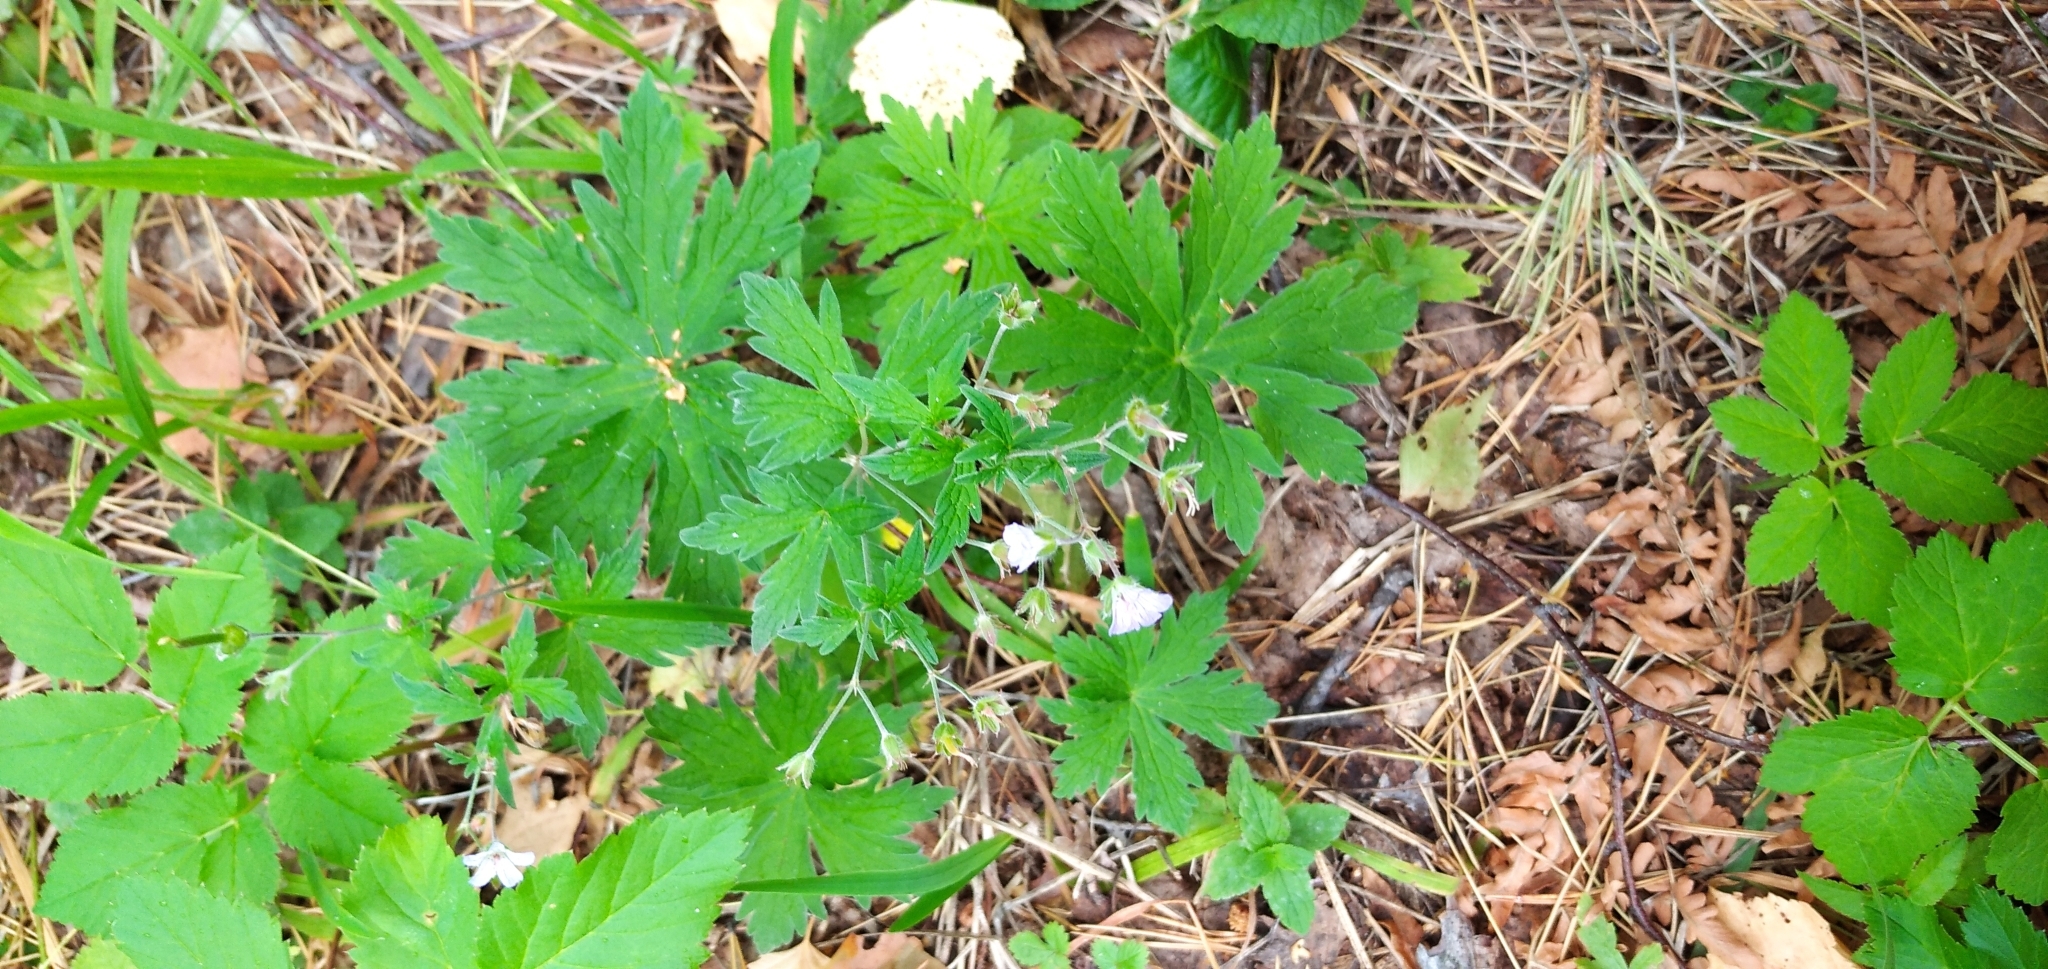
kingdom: Plantae
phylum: Tracheophyta
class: Magnoliopsida
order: Geraniales
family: Geraniaceae
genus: Geranium
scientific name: Geranium pseudosibiricum
